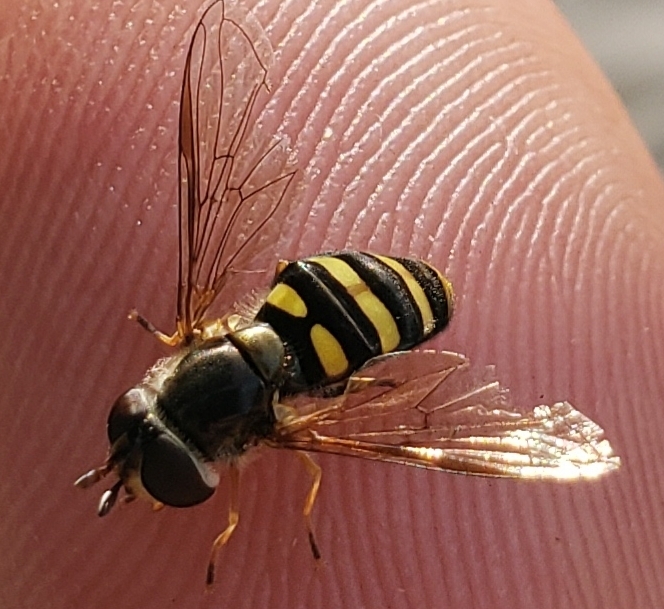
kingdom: Animalia
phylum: Arthropoda
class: Insecta
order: Diptera
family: Syrphidae
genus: Eupeodes
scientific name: Eupeodes
